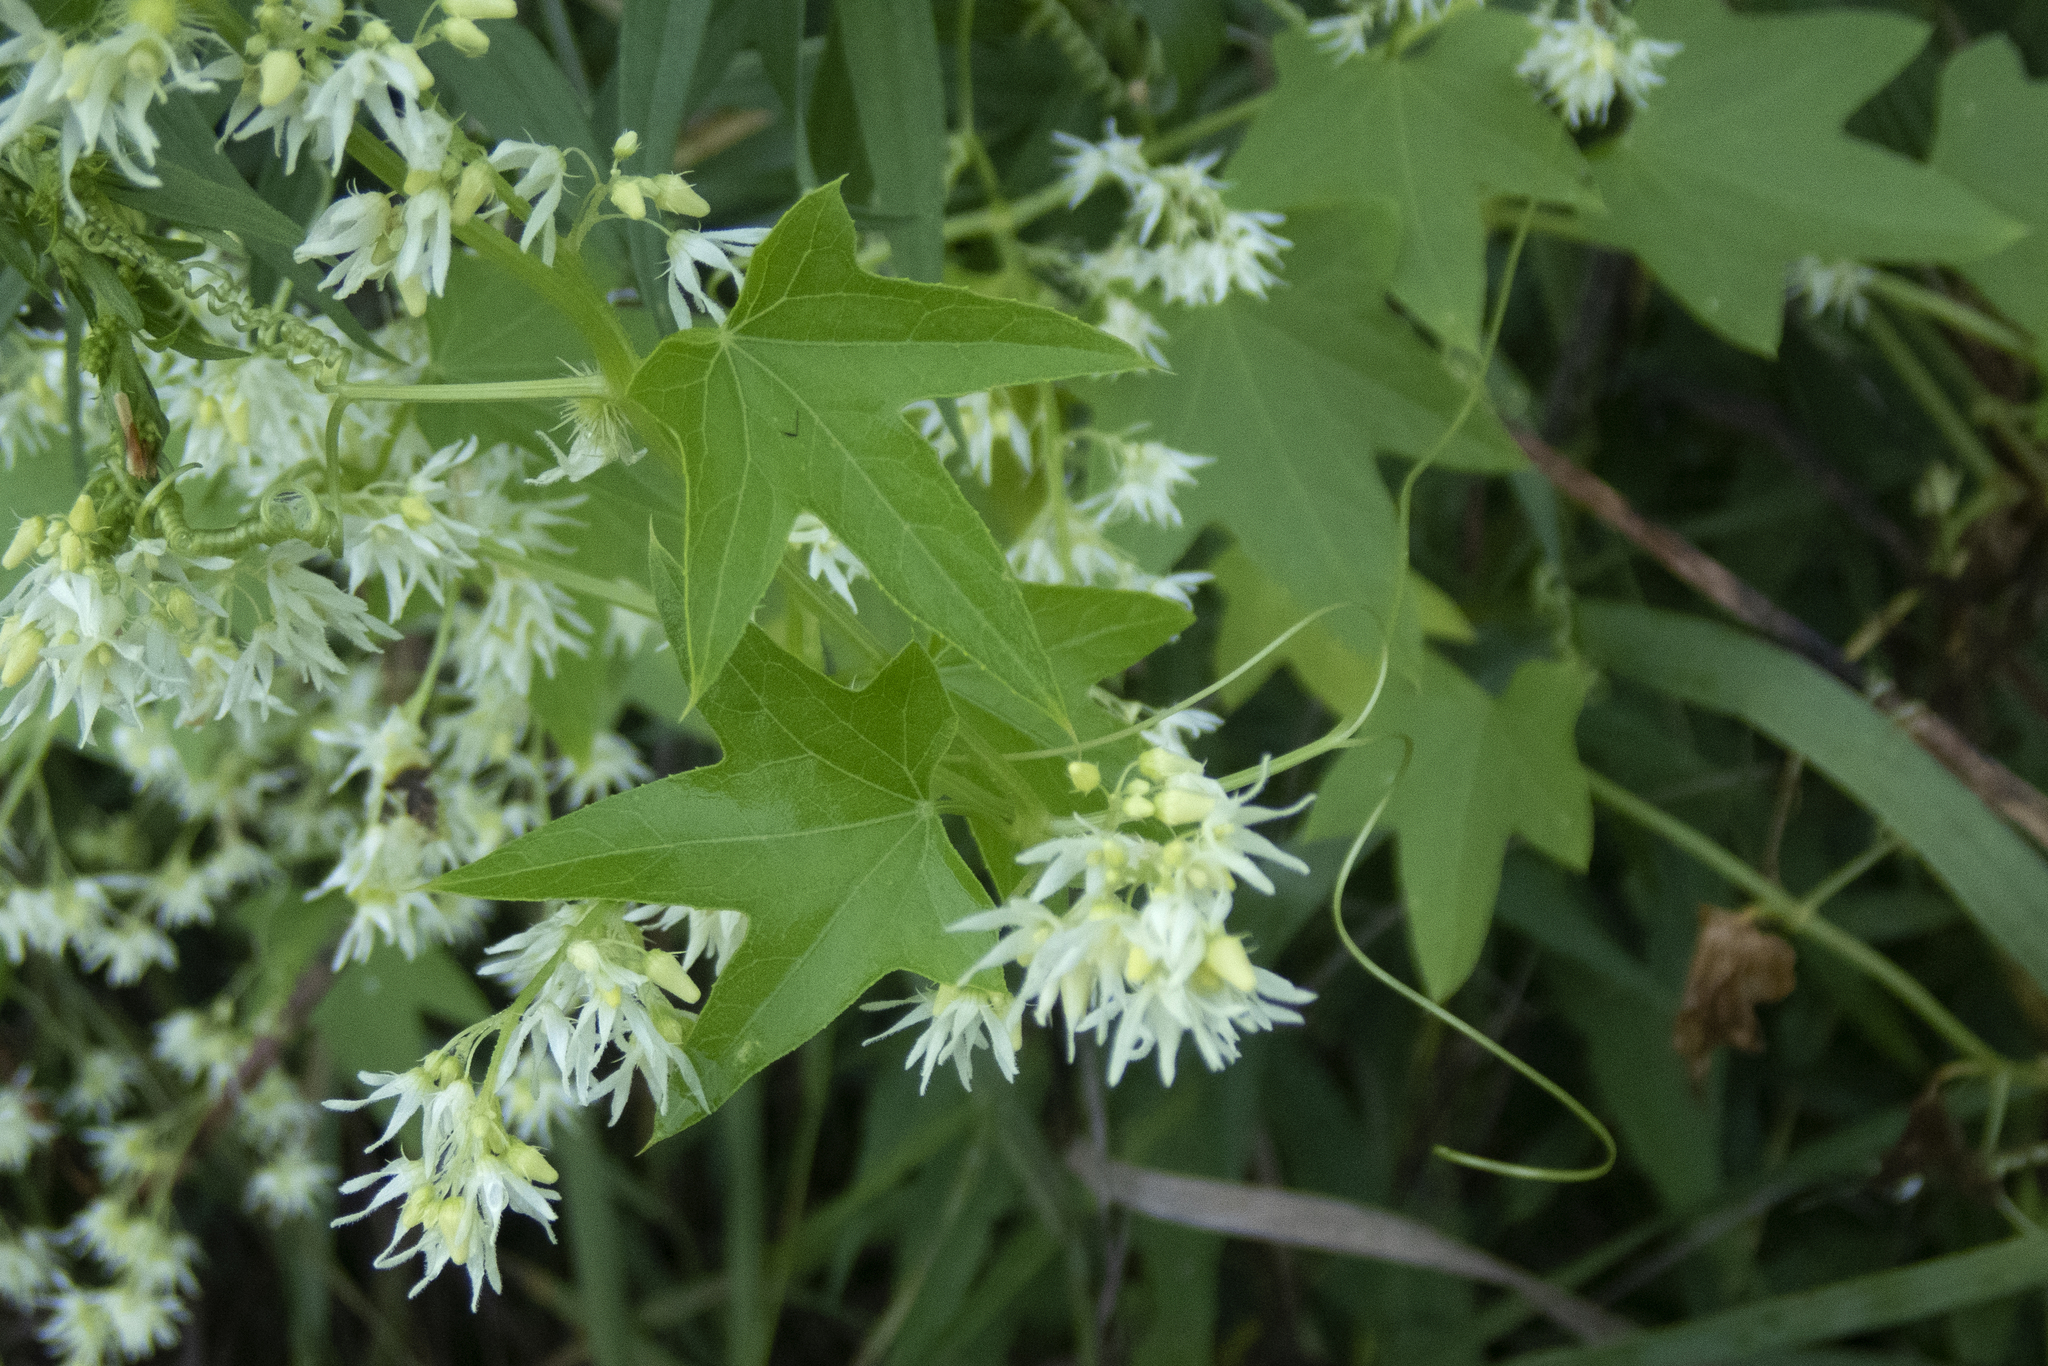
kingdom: Plantae
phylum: Tracheophyta
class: Magnoliopsida
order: Cucurbitales
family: Cucurbitaceae
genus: Echinocystis
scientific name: Echinocystis lobata
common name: Wild cucumber
